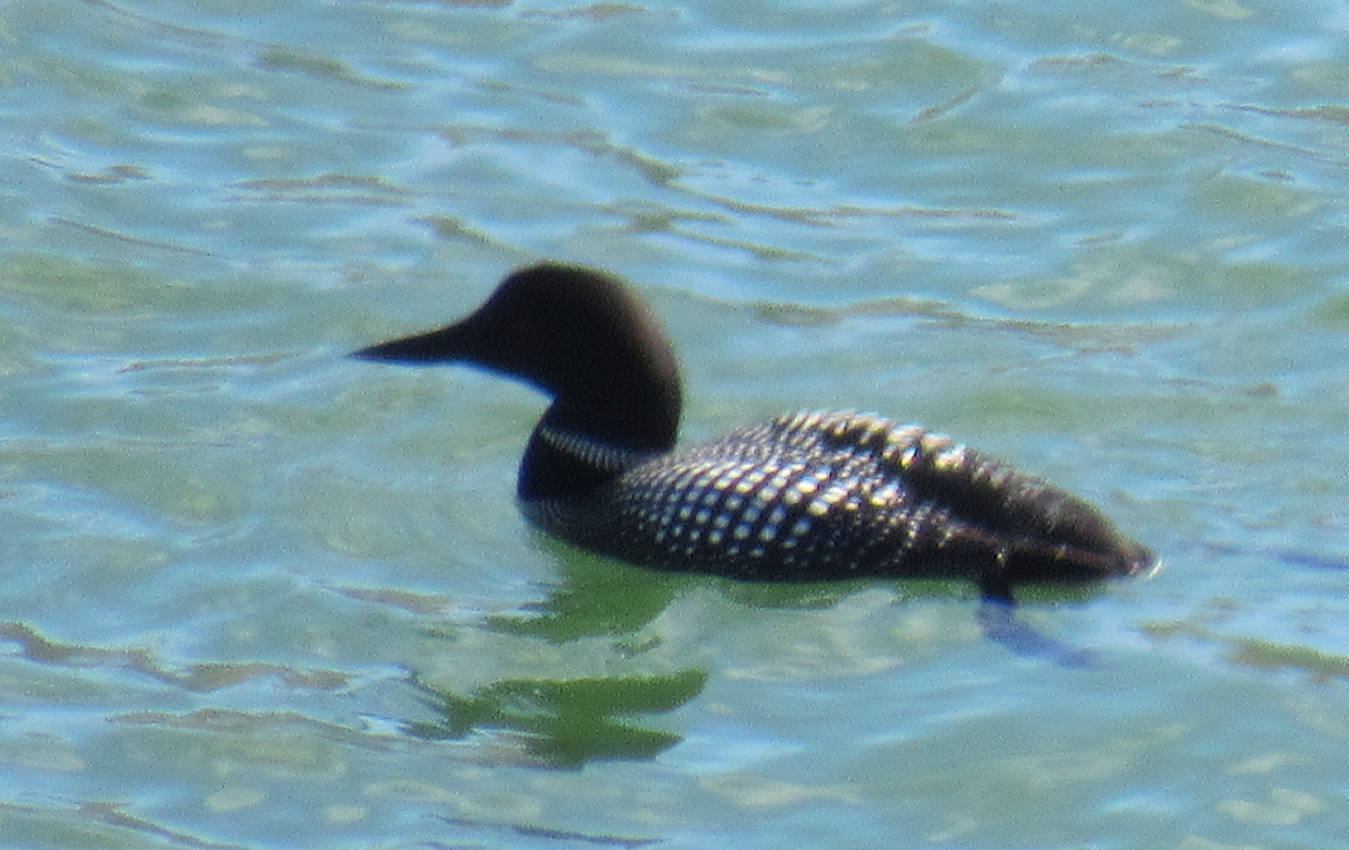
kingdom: Animalia
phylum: Chordata
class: Aves
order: Gaviiformes
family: Gaviidae
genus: Gavia
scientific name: Gavia immer
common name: Common loon
